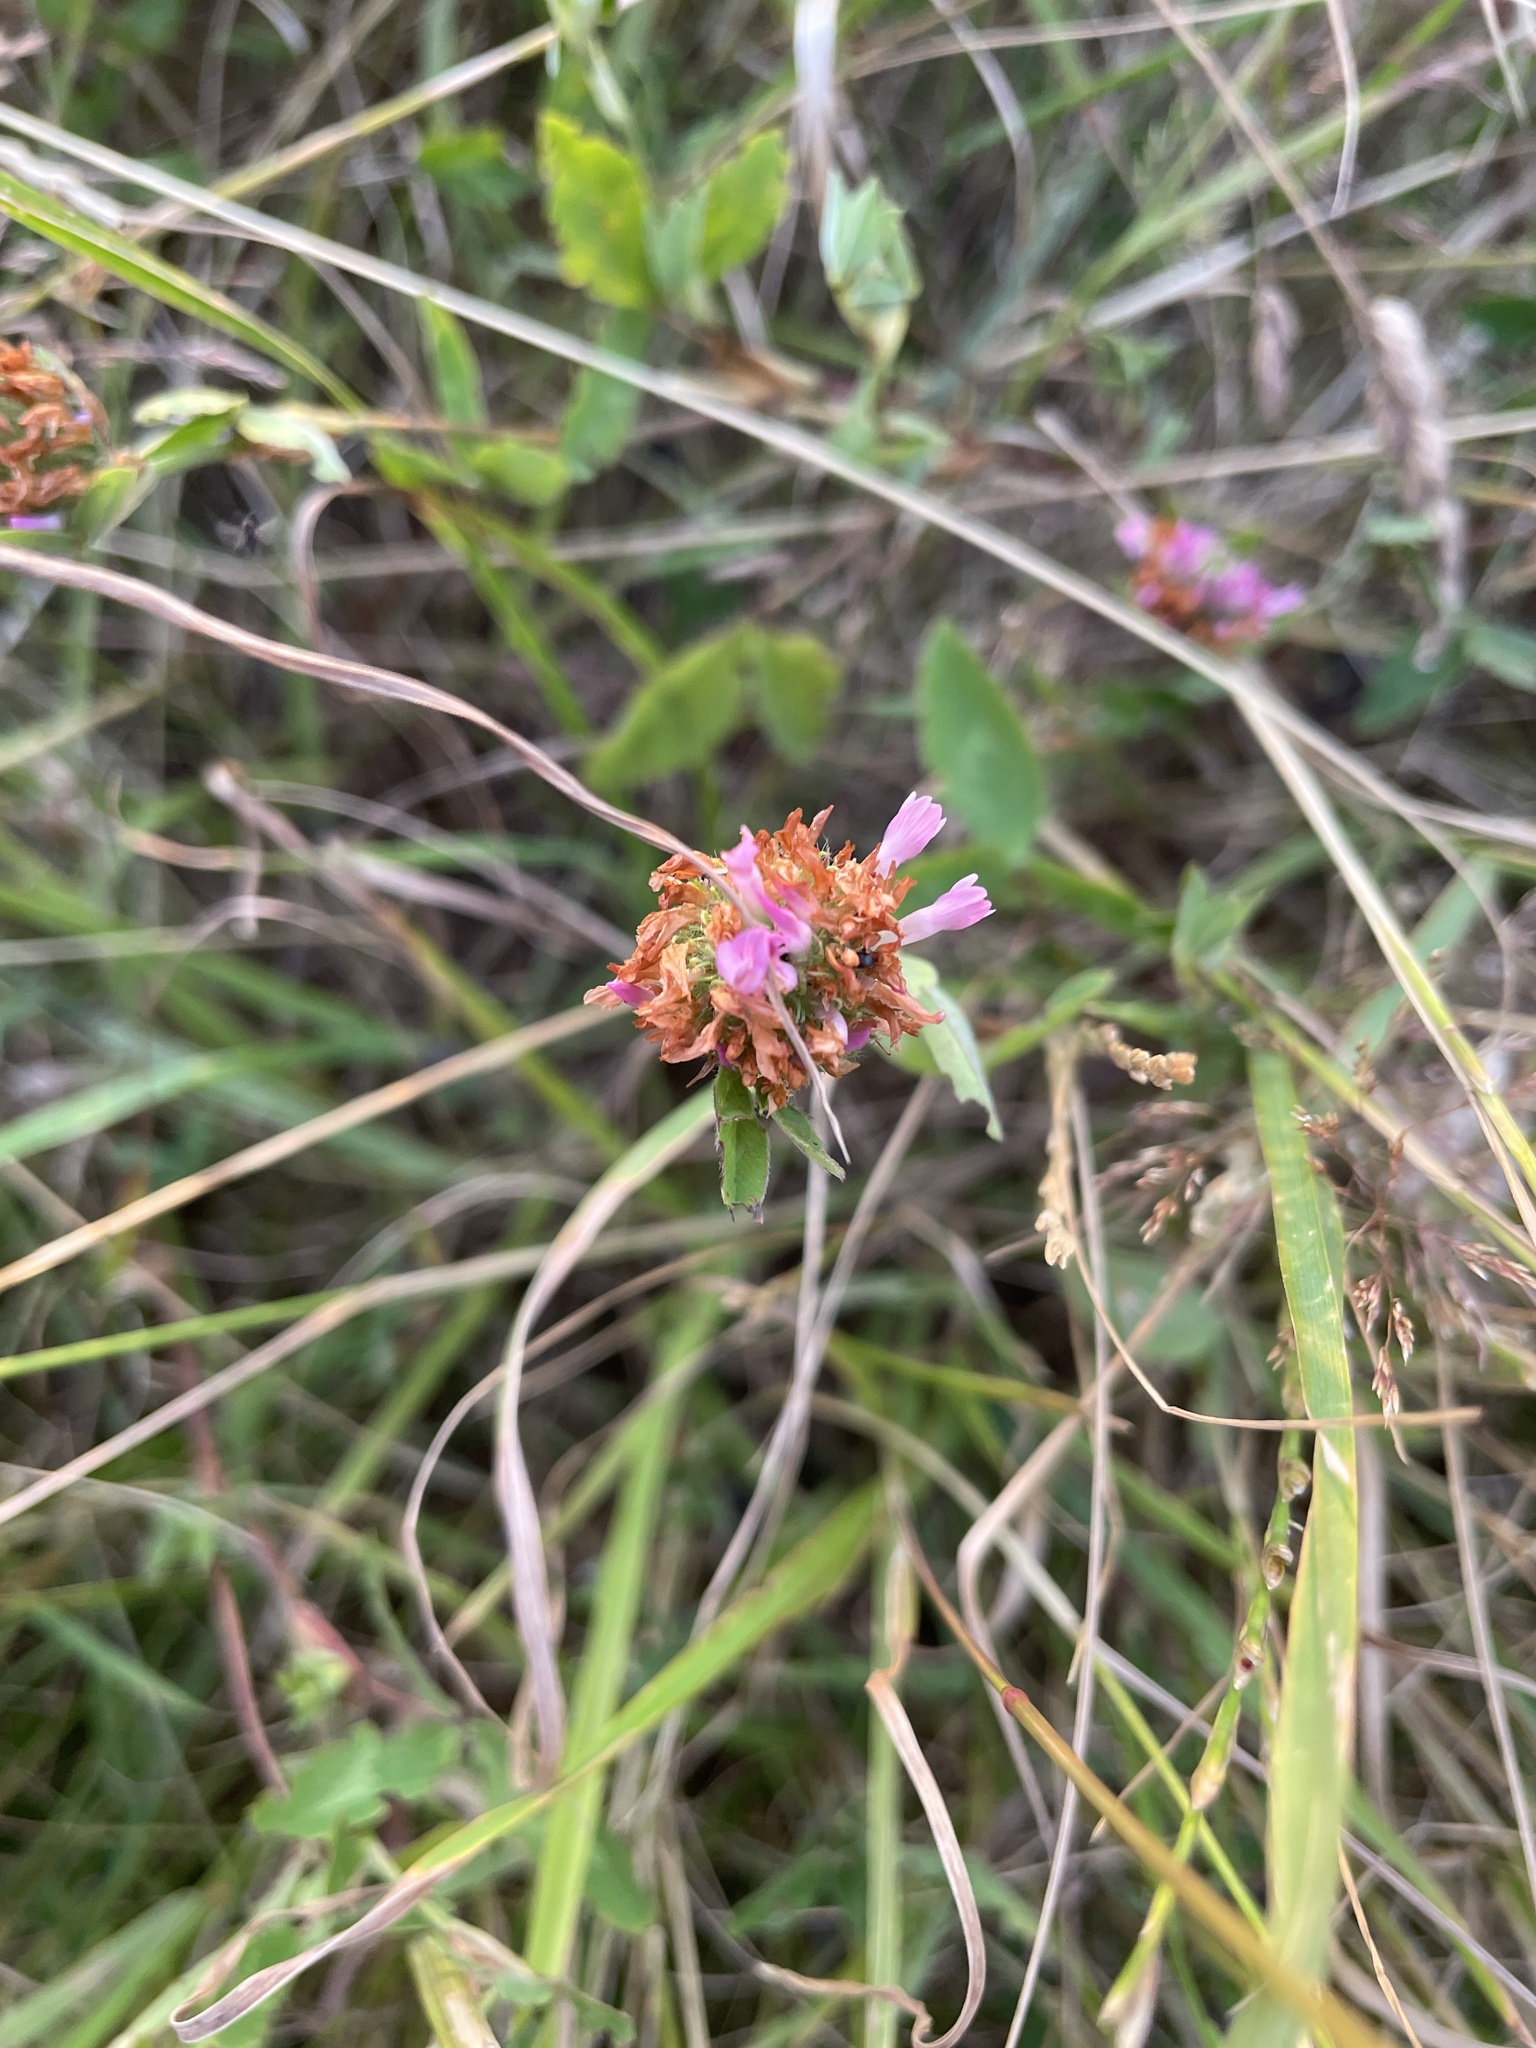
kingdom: Plantae
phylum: Tracheophyta
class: Magnoliopsida
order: Fabales
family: Fabaceae
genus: Trifolium
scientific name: Trifolium pratense
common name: Red clover
